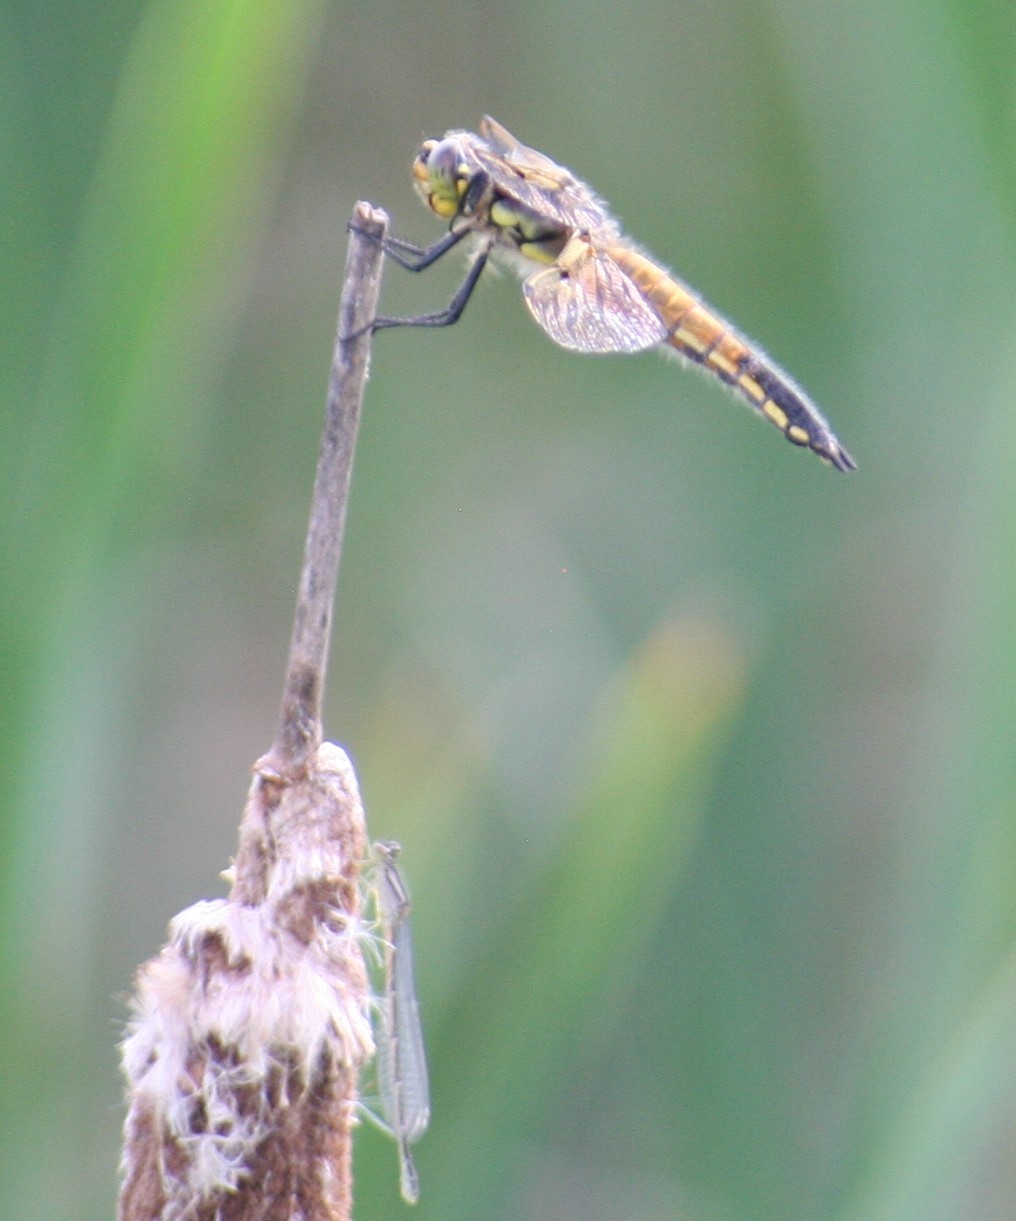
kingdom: Animalia
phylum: Arthropoda
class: Insecta
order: Odonata
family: Libellulidae
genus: Libellula
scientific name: Libellula quadrimaculata
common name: Four-spotted chaser
